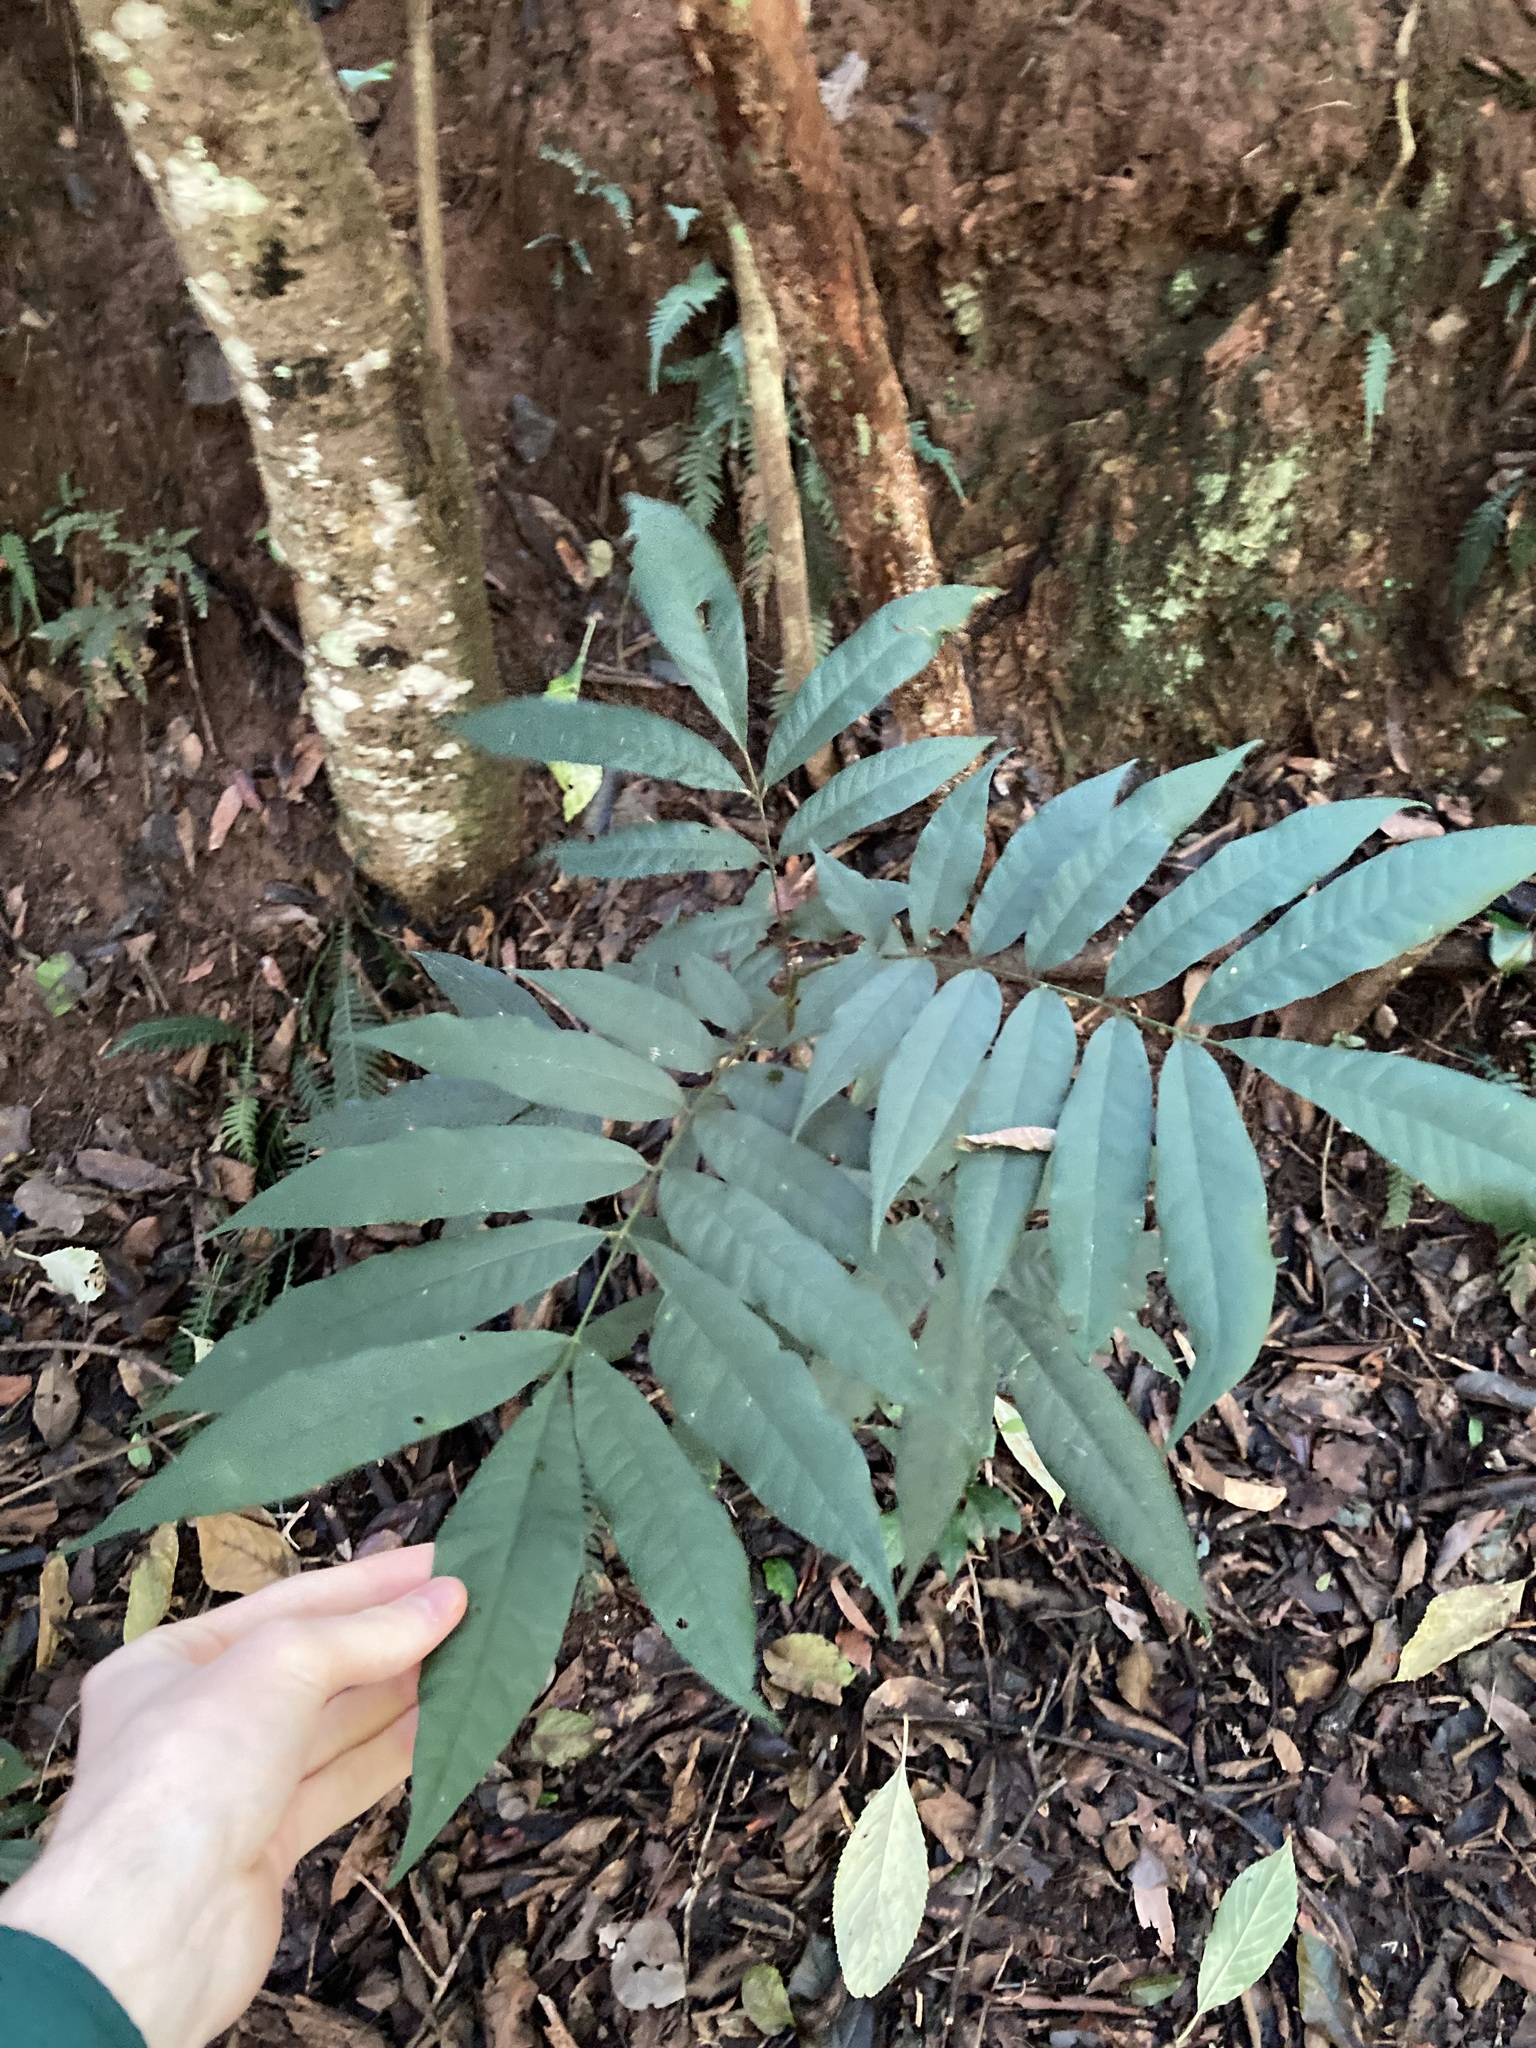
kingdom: Plantae
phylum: Tracheophyta
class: Magnoliopsida
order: Sapindales
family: Meliaceae
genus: Didymocheton
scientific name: Didymocheton rufus
